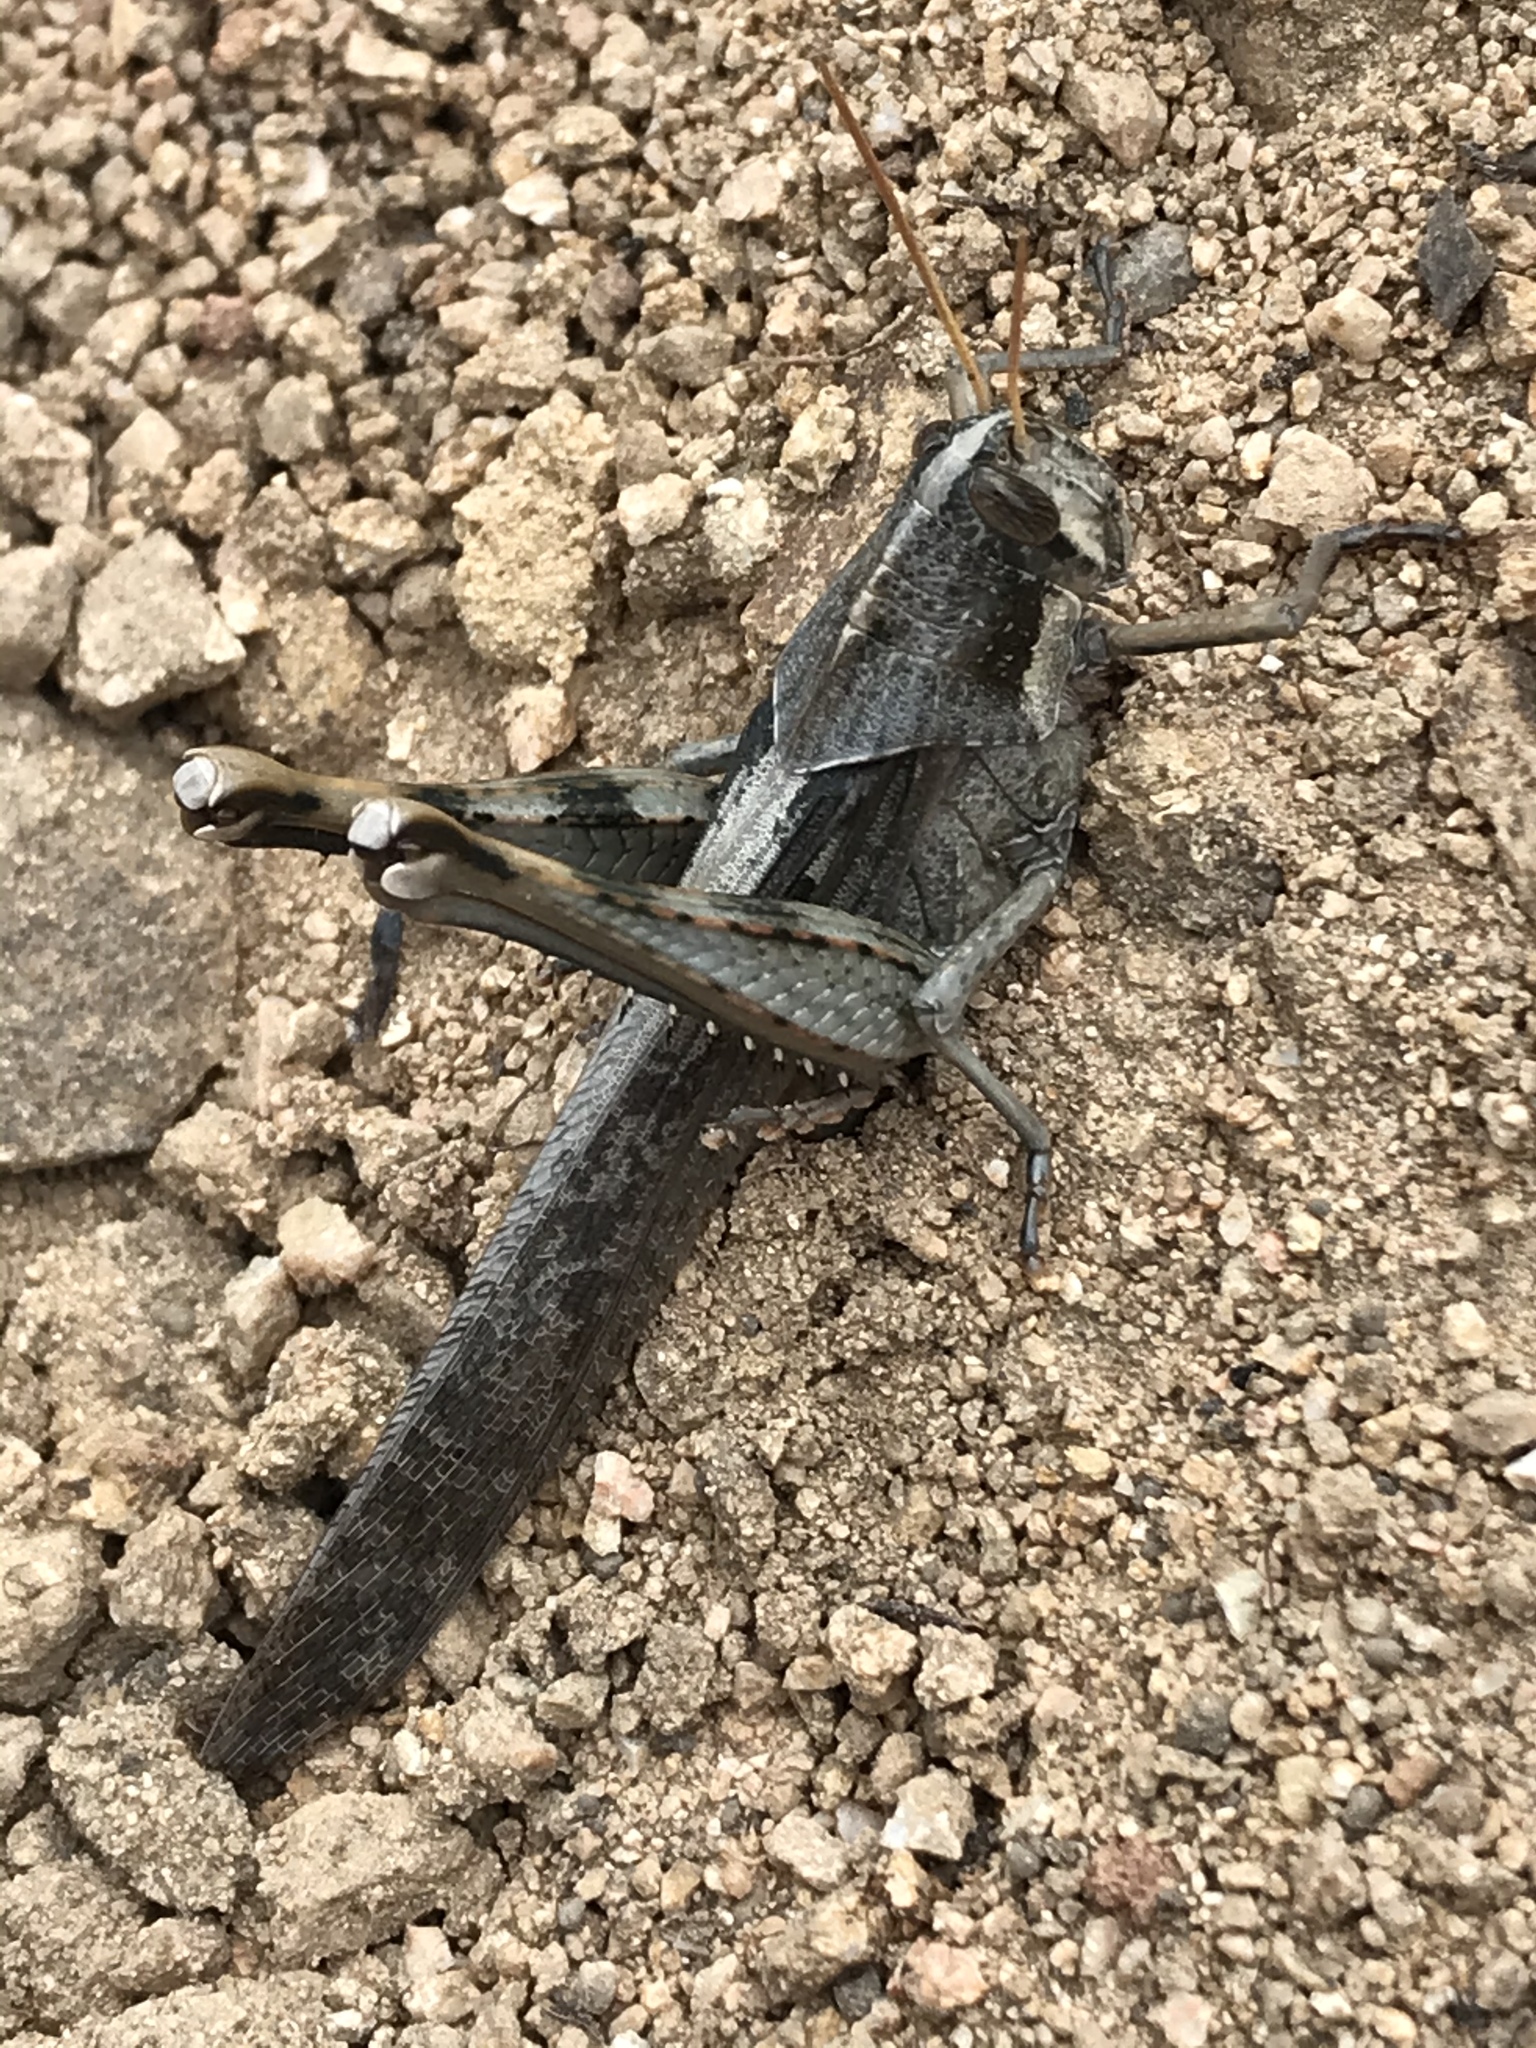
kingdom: Animalia
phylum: Arthropoda
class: Insecta
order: Orthoptera
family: Acrididae
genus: Schistocerca
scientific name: Schistocerca nitens
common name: Vagrant grasshopper
